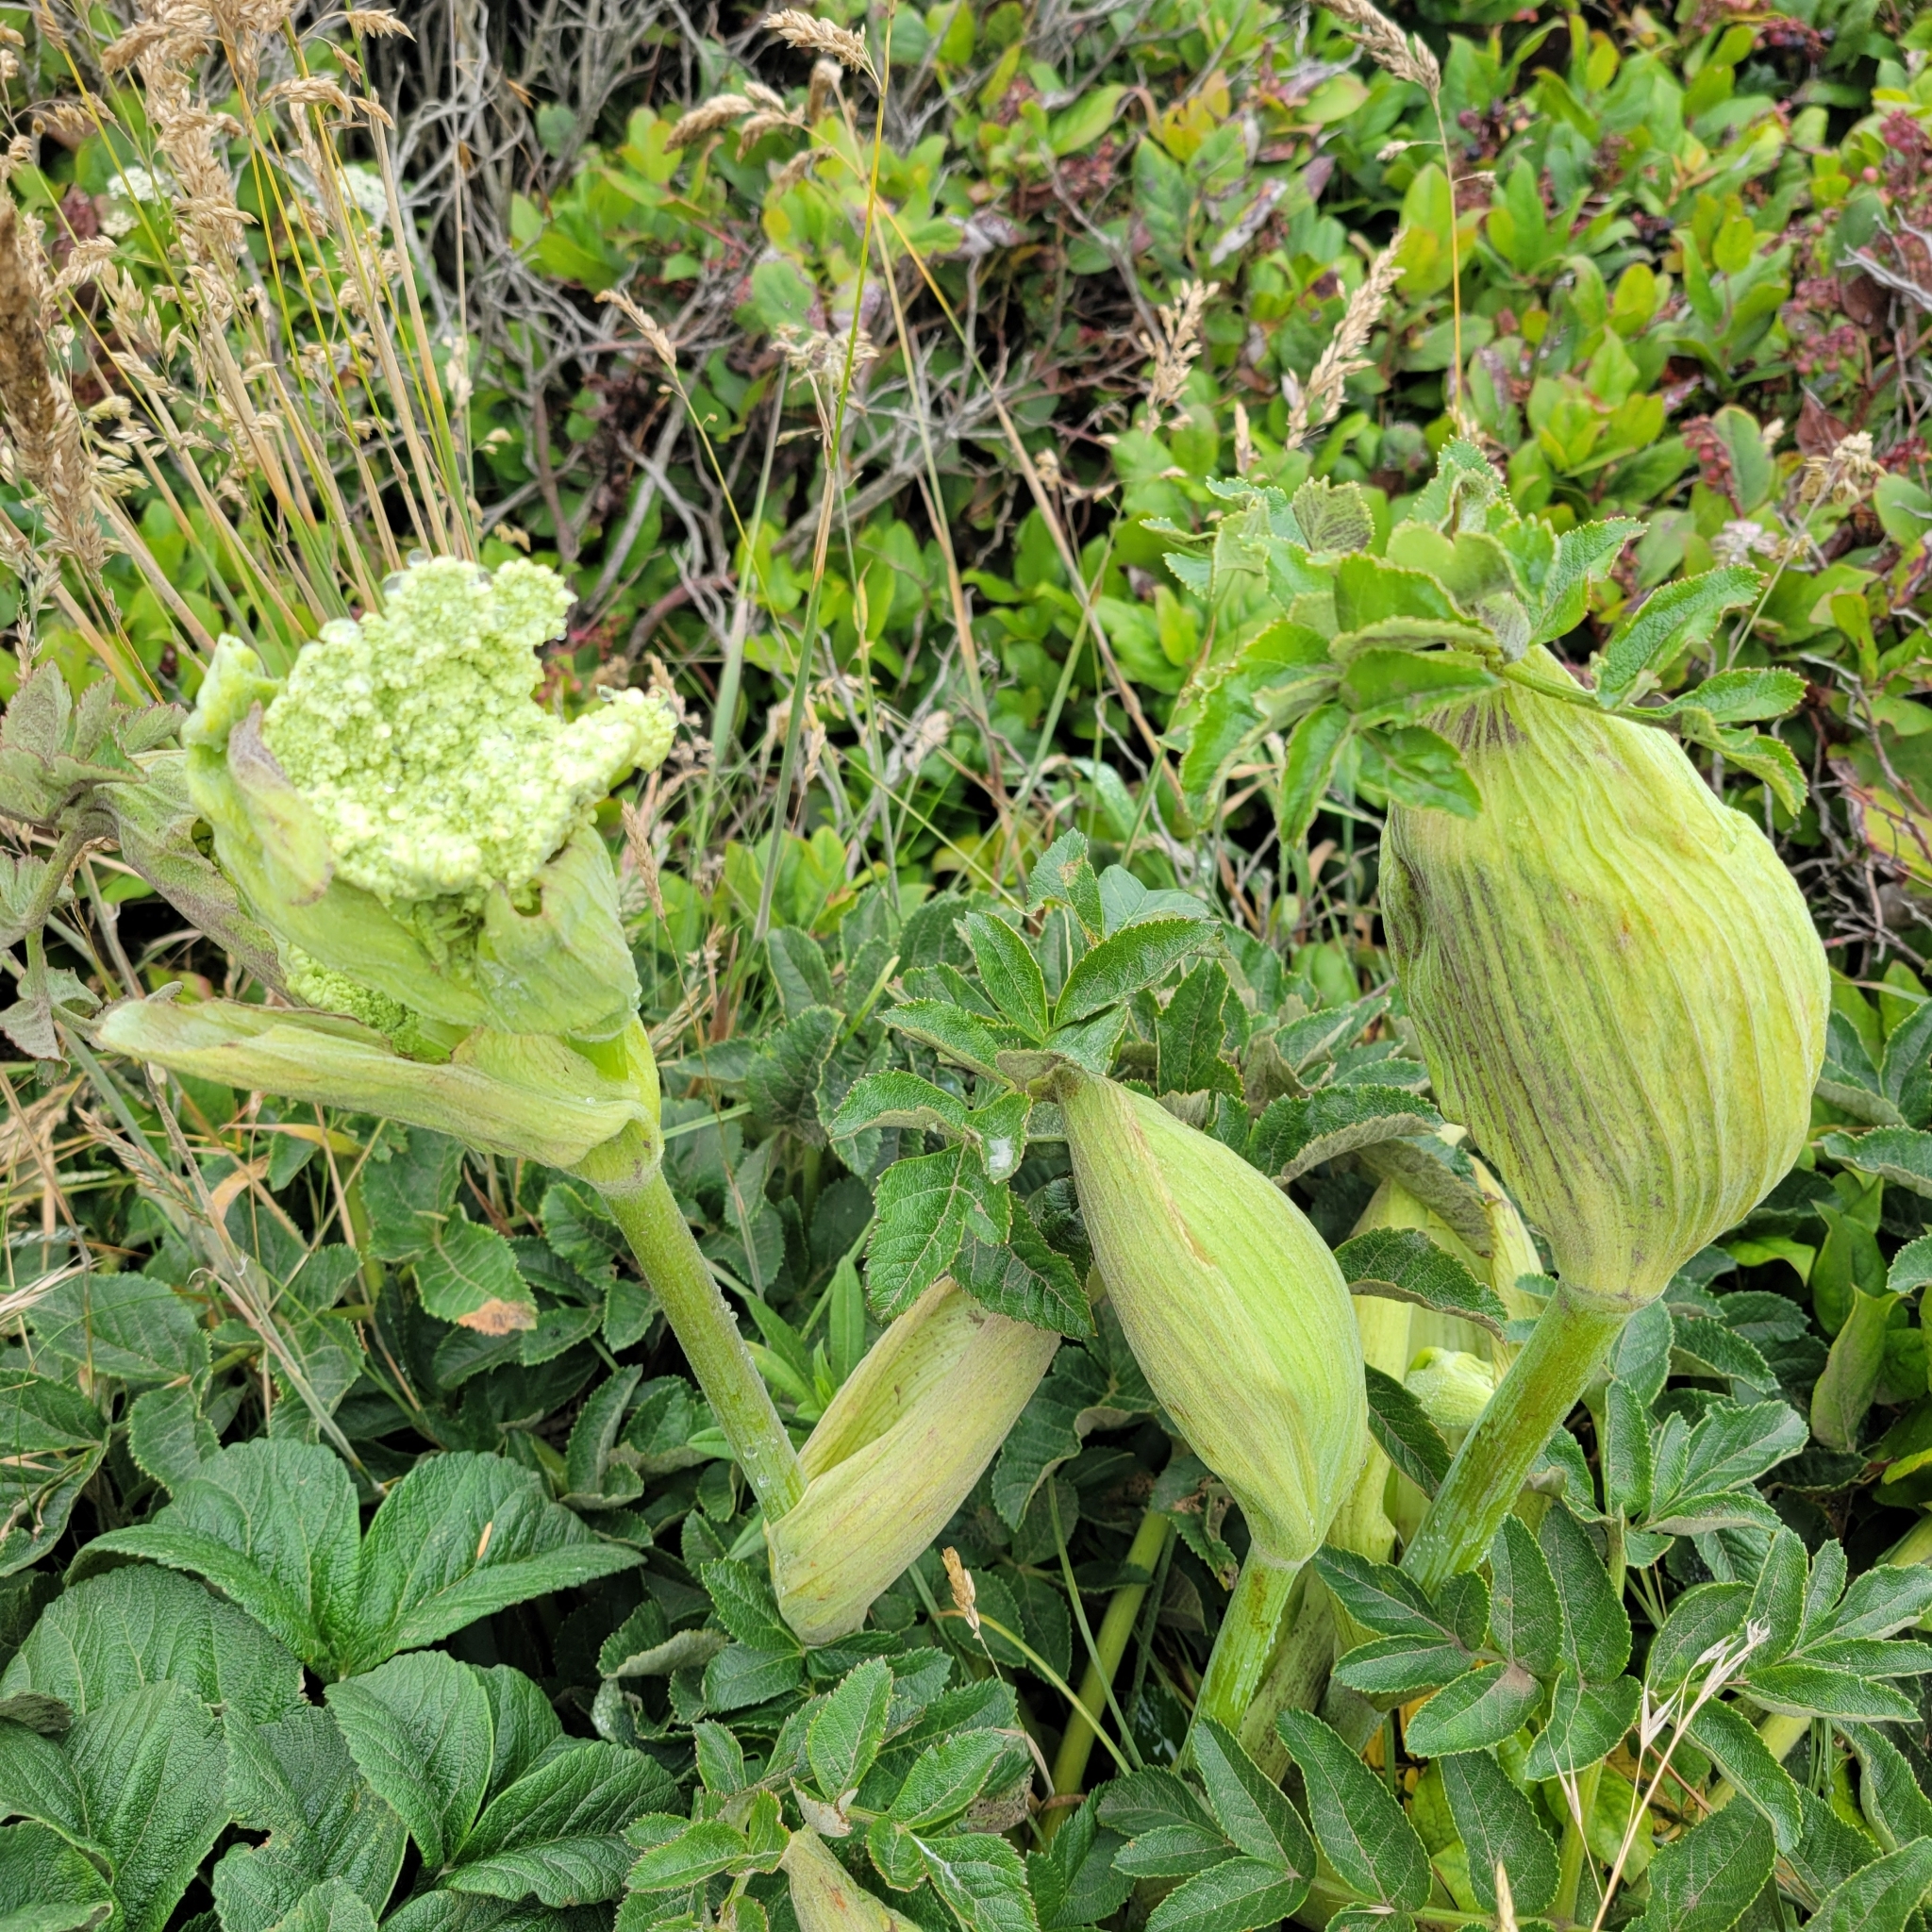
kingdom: Plantae
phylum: Tracheophyta
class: Magnoliopsida
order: Apiales
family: Apiaceae
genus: Angelica
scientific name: Angelica hendersonii
